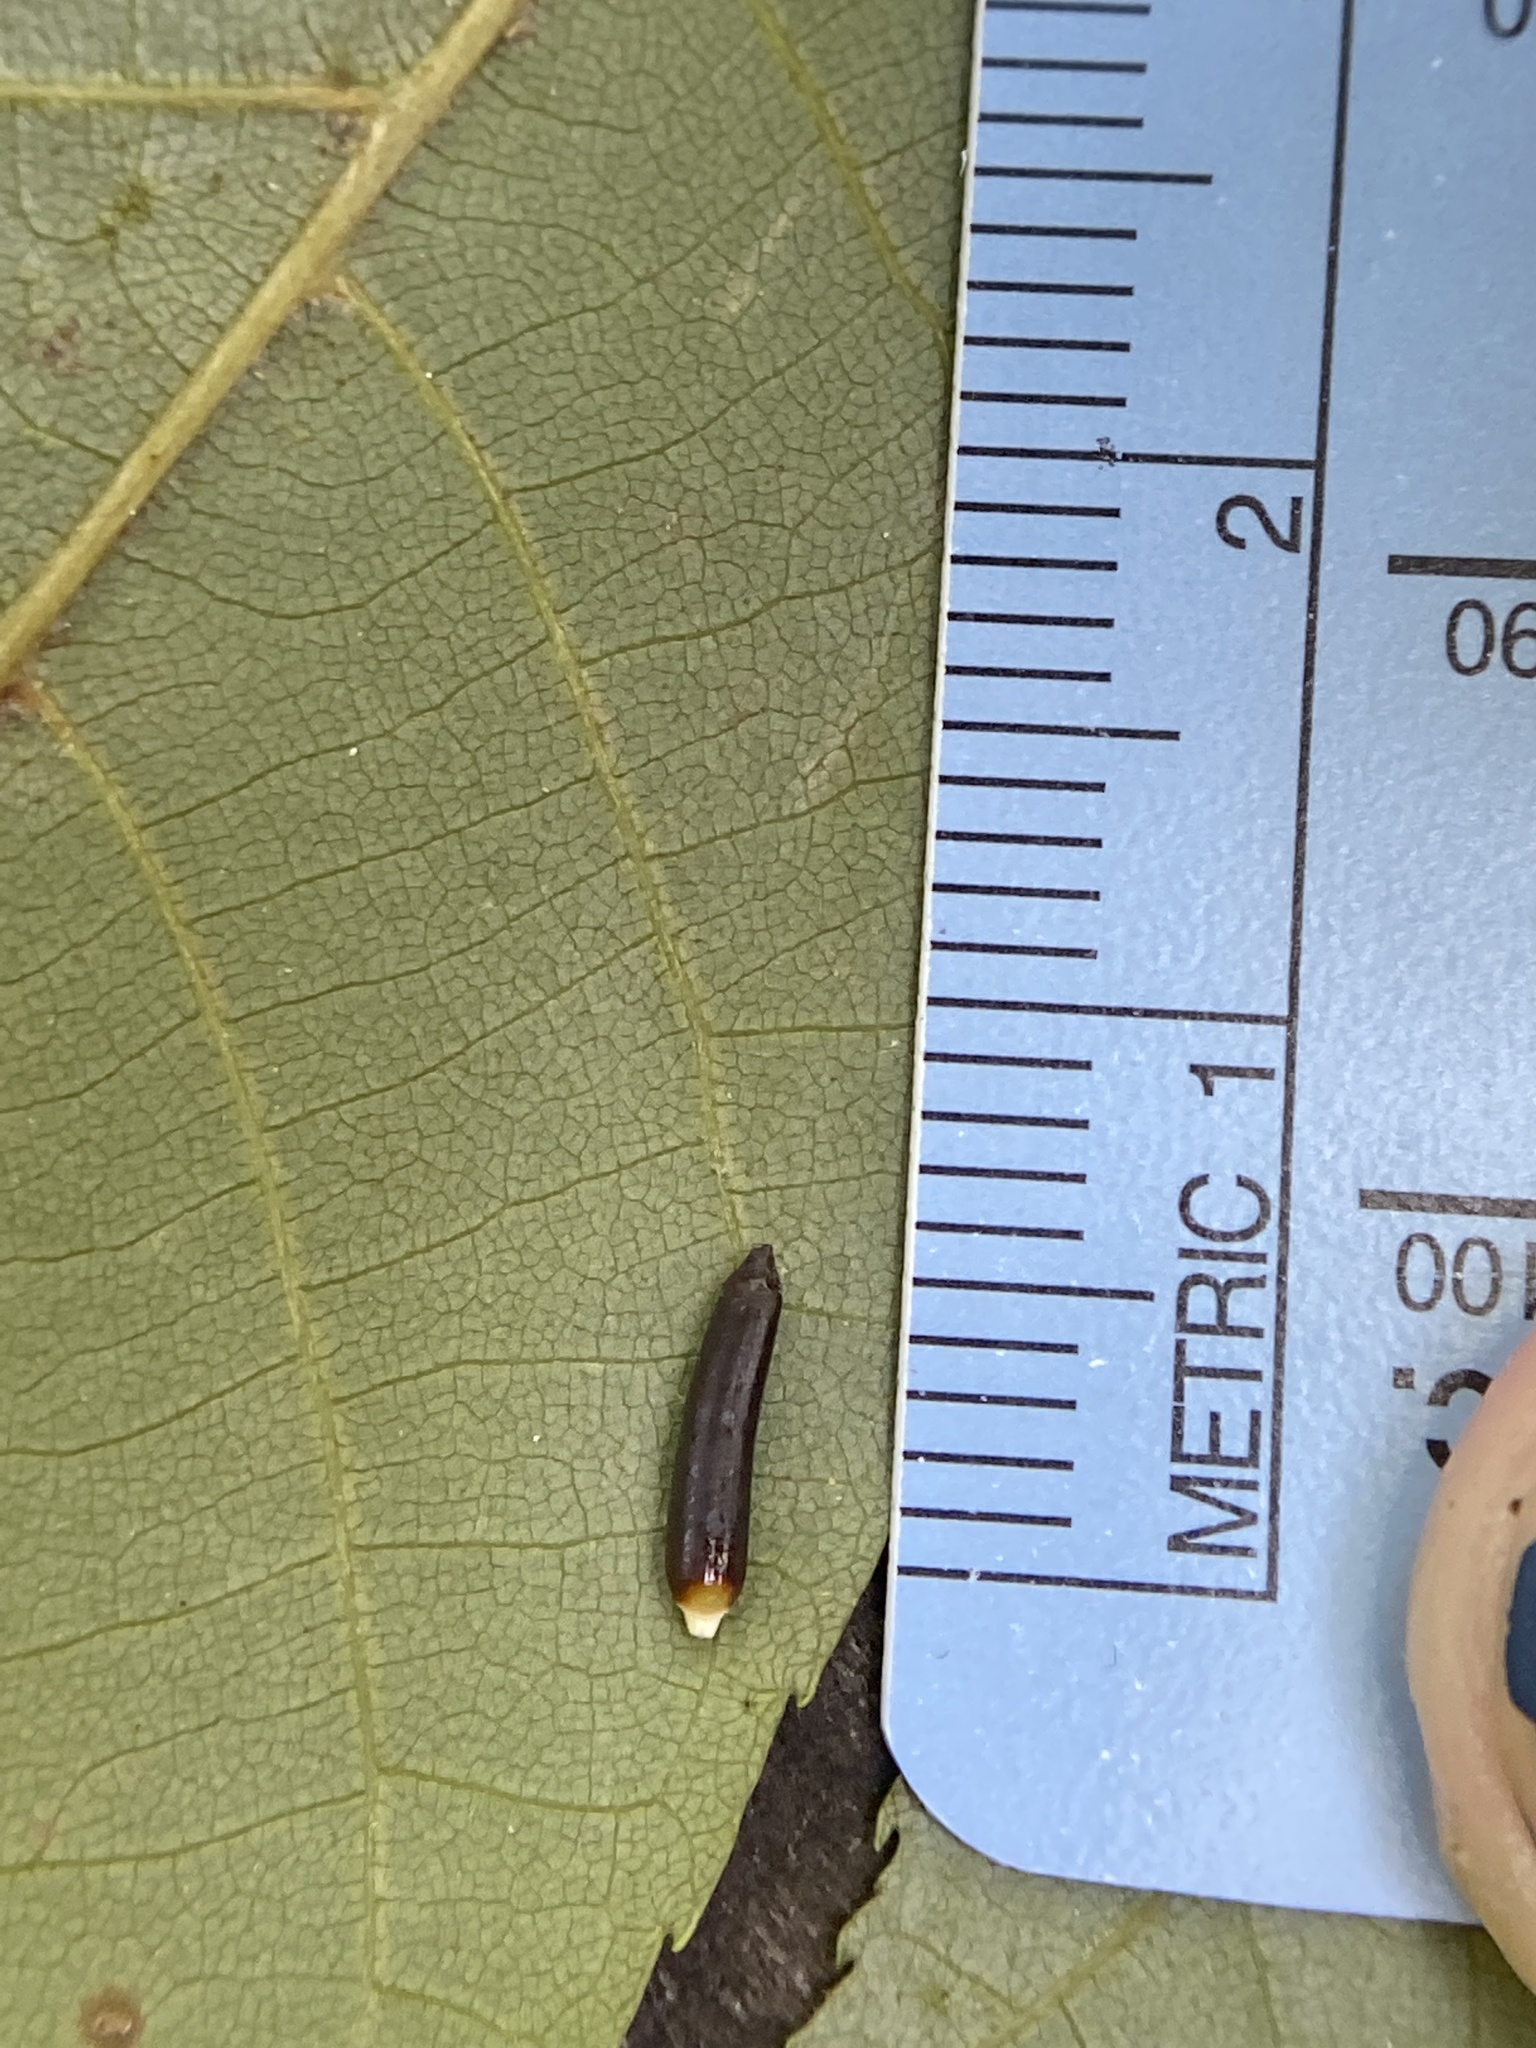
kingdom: Animalia
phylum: Arthropoda
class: Insecta
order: Diptera
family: Cecidomyiidae
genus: Caryomyia
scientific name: Caryomyia tubicola
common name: Hickory bullet gall midge
